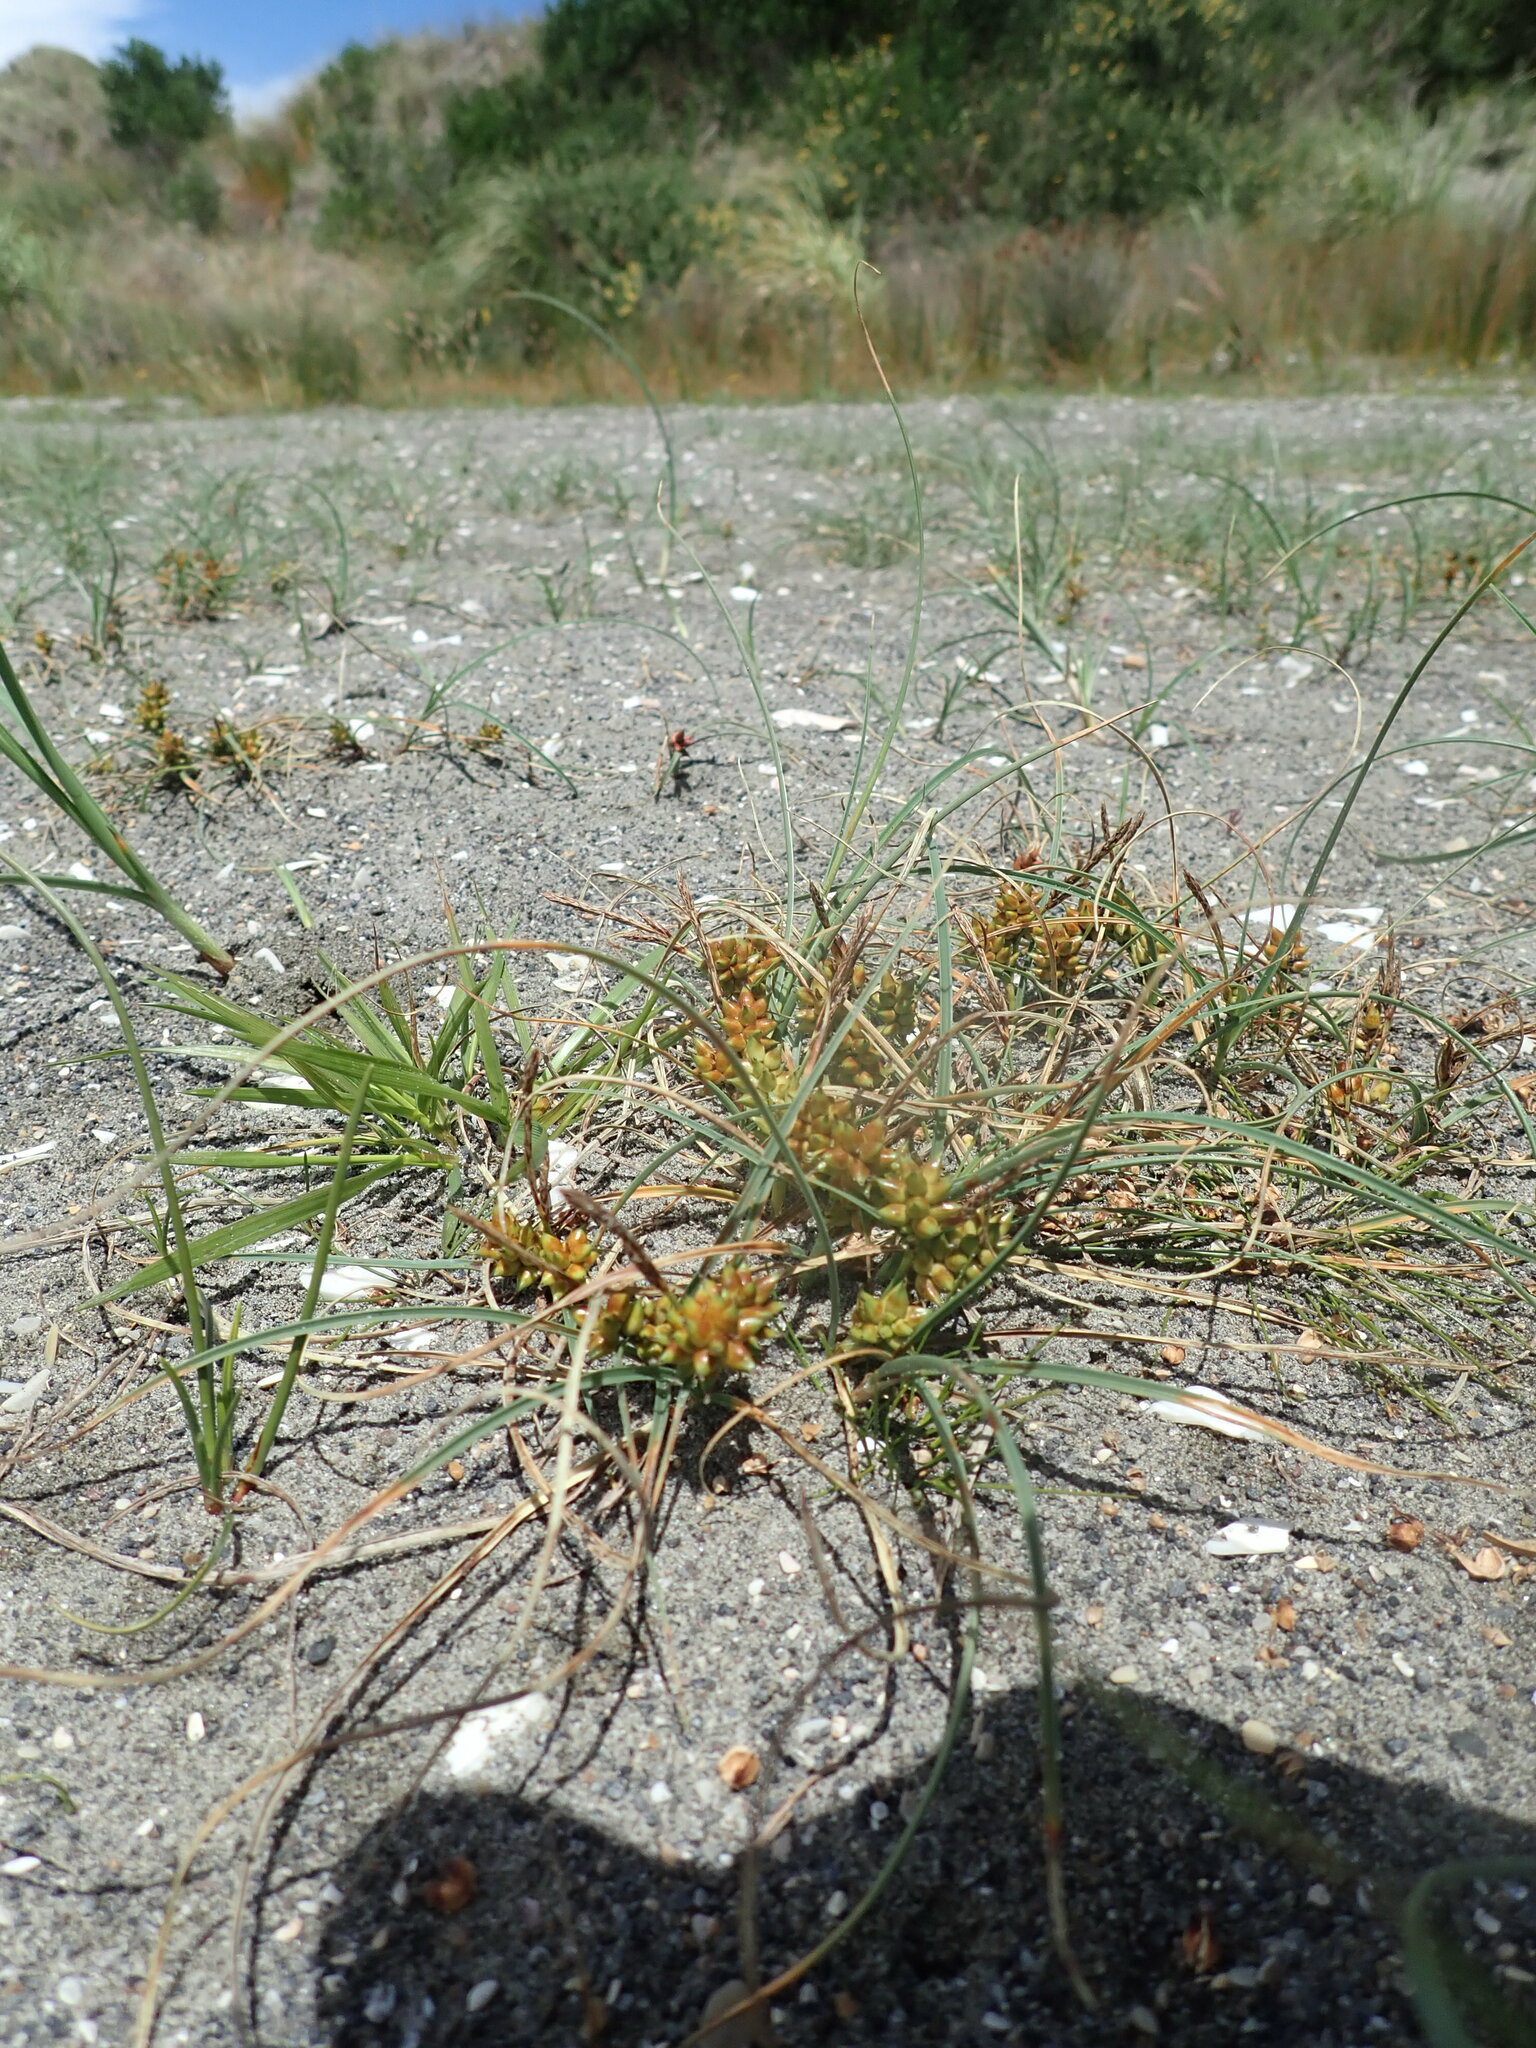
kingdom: Plantae
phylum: Tracheophyta
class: Liliopsida
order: Poales
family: Cyperaceae
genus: Carex
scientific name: Carex pumila
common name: Dwarf sedge
